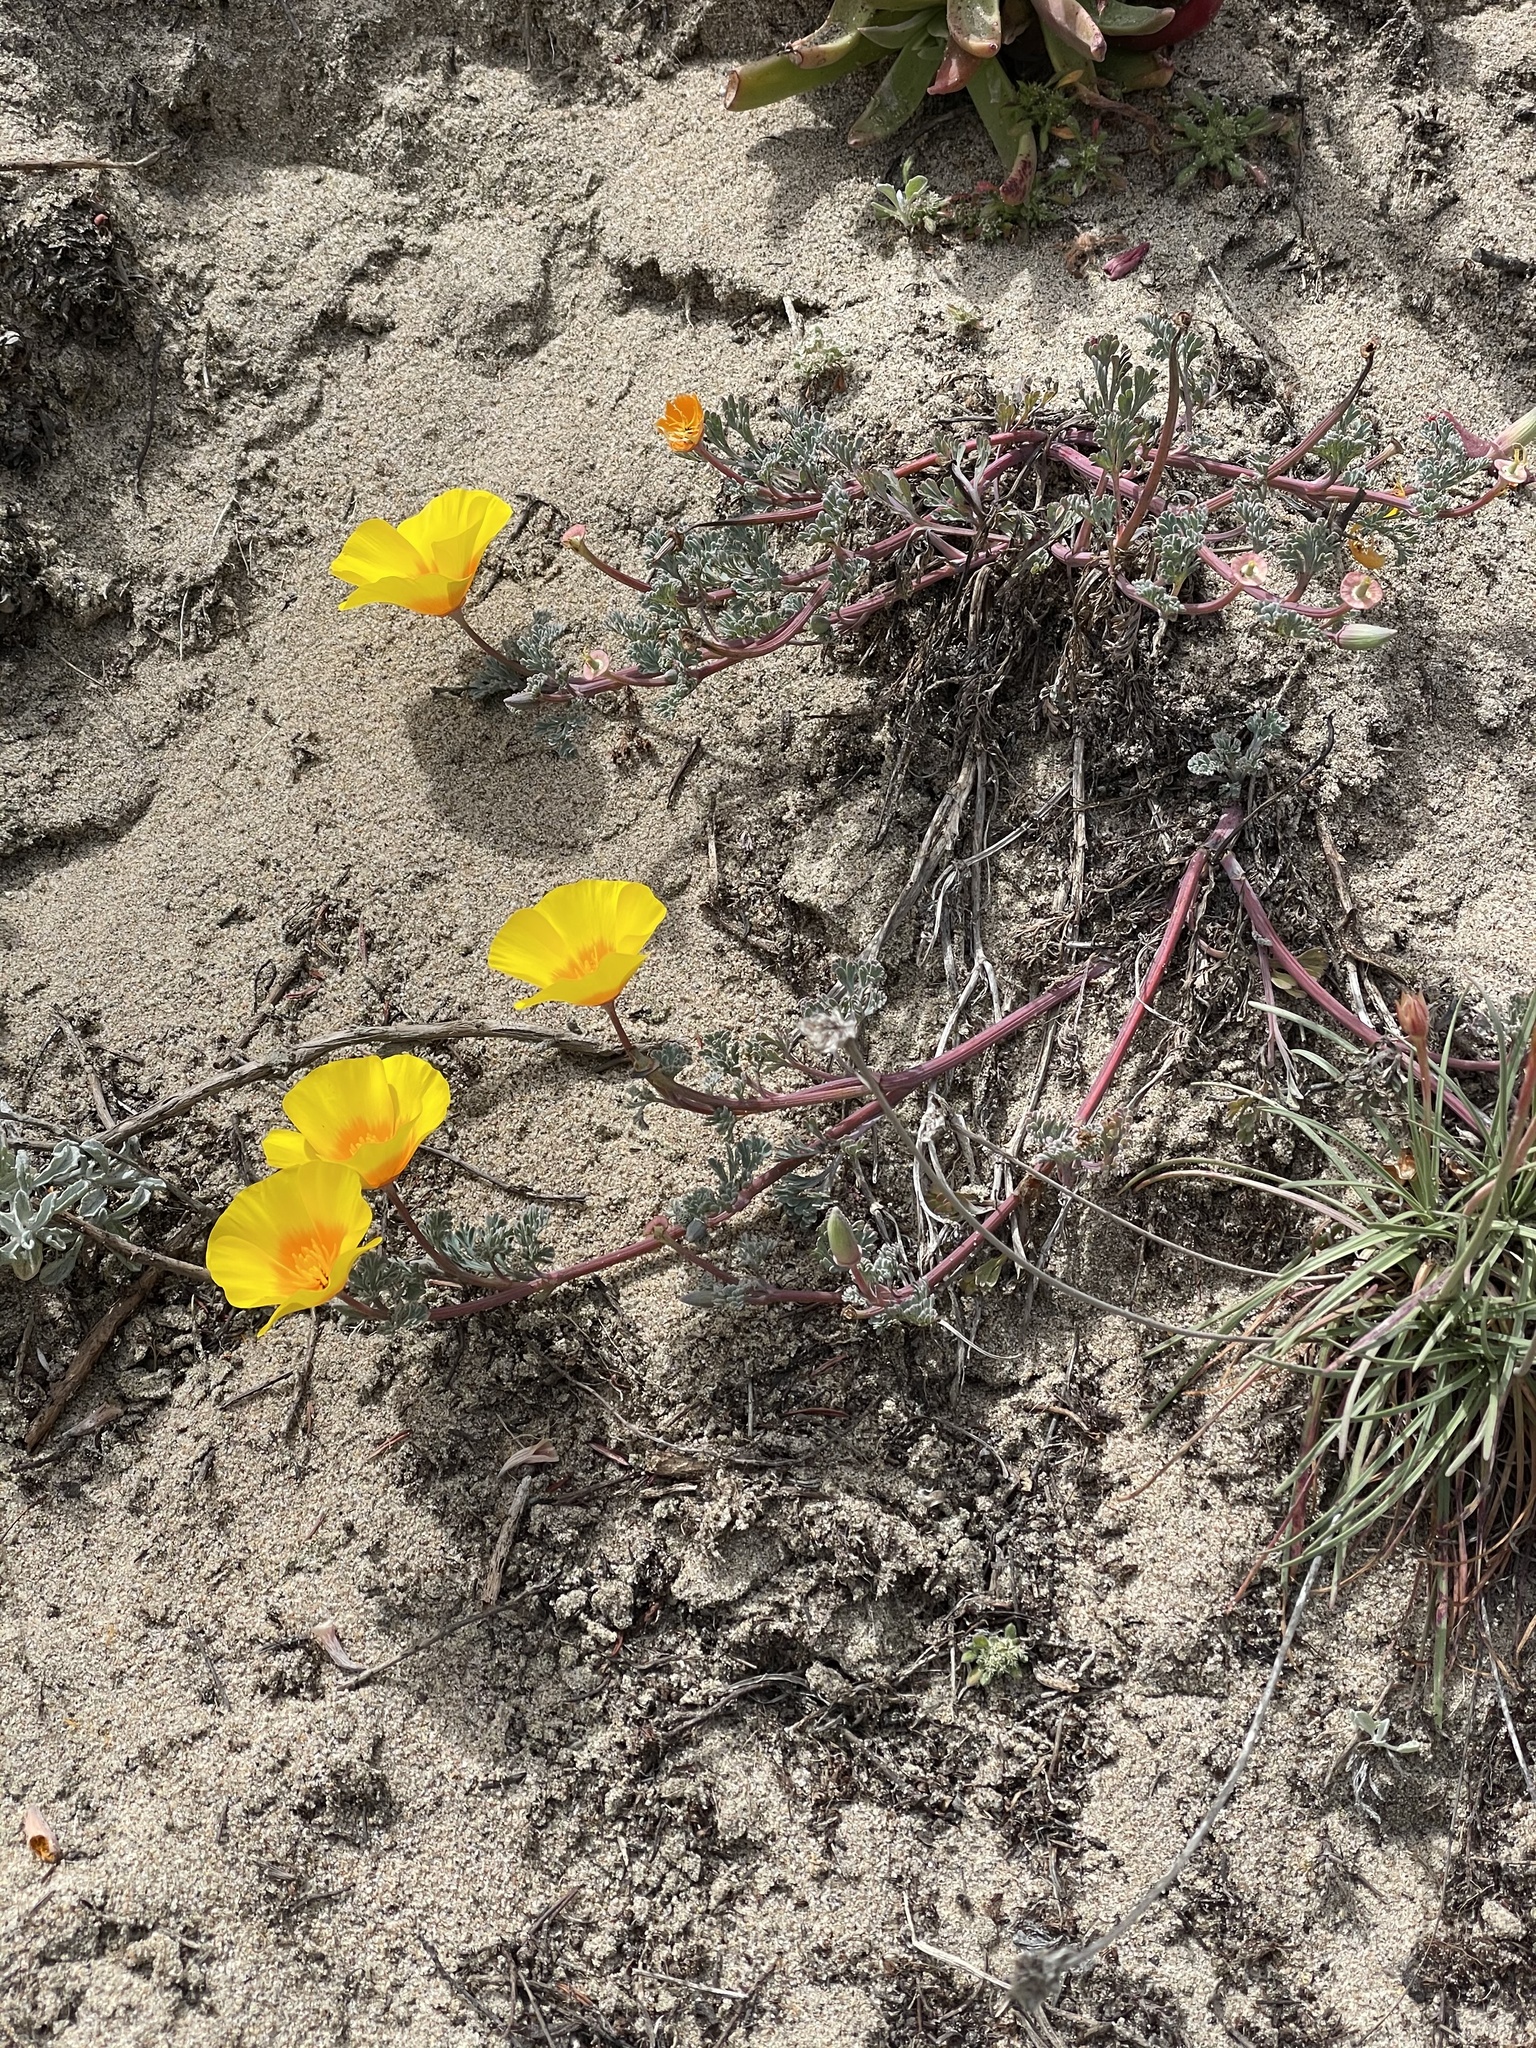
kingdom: Plantae
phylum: Tracheophyta
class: Magnoliopsida
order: Ranunculales
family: Papaveraceae
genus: Eschscholzia
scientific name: Eschscholzia californica
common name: California poppy
